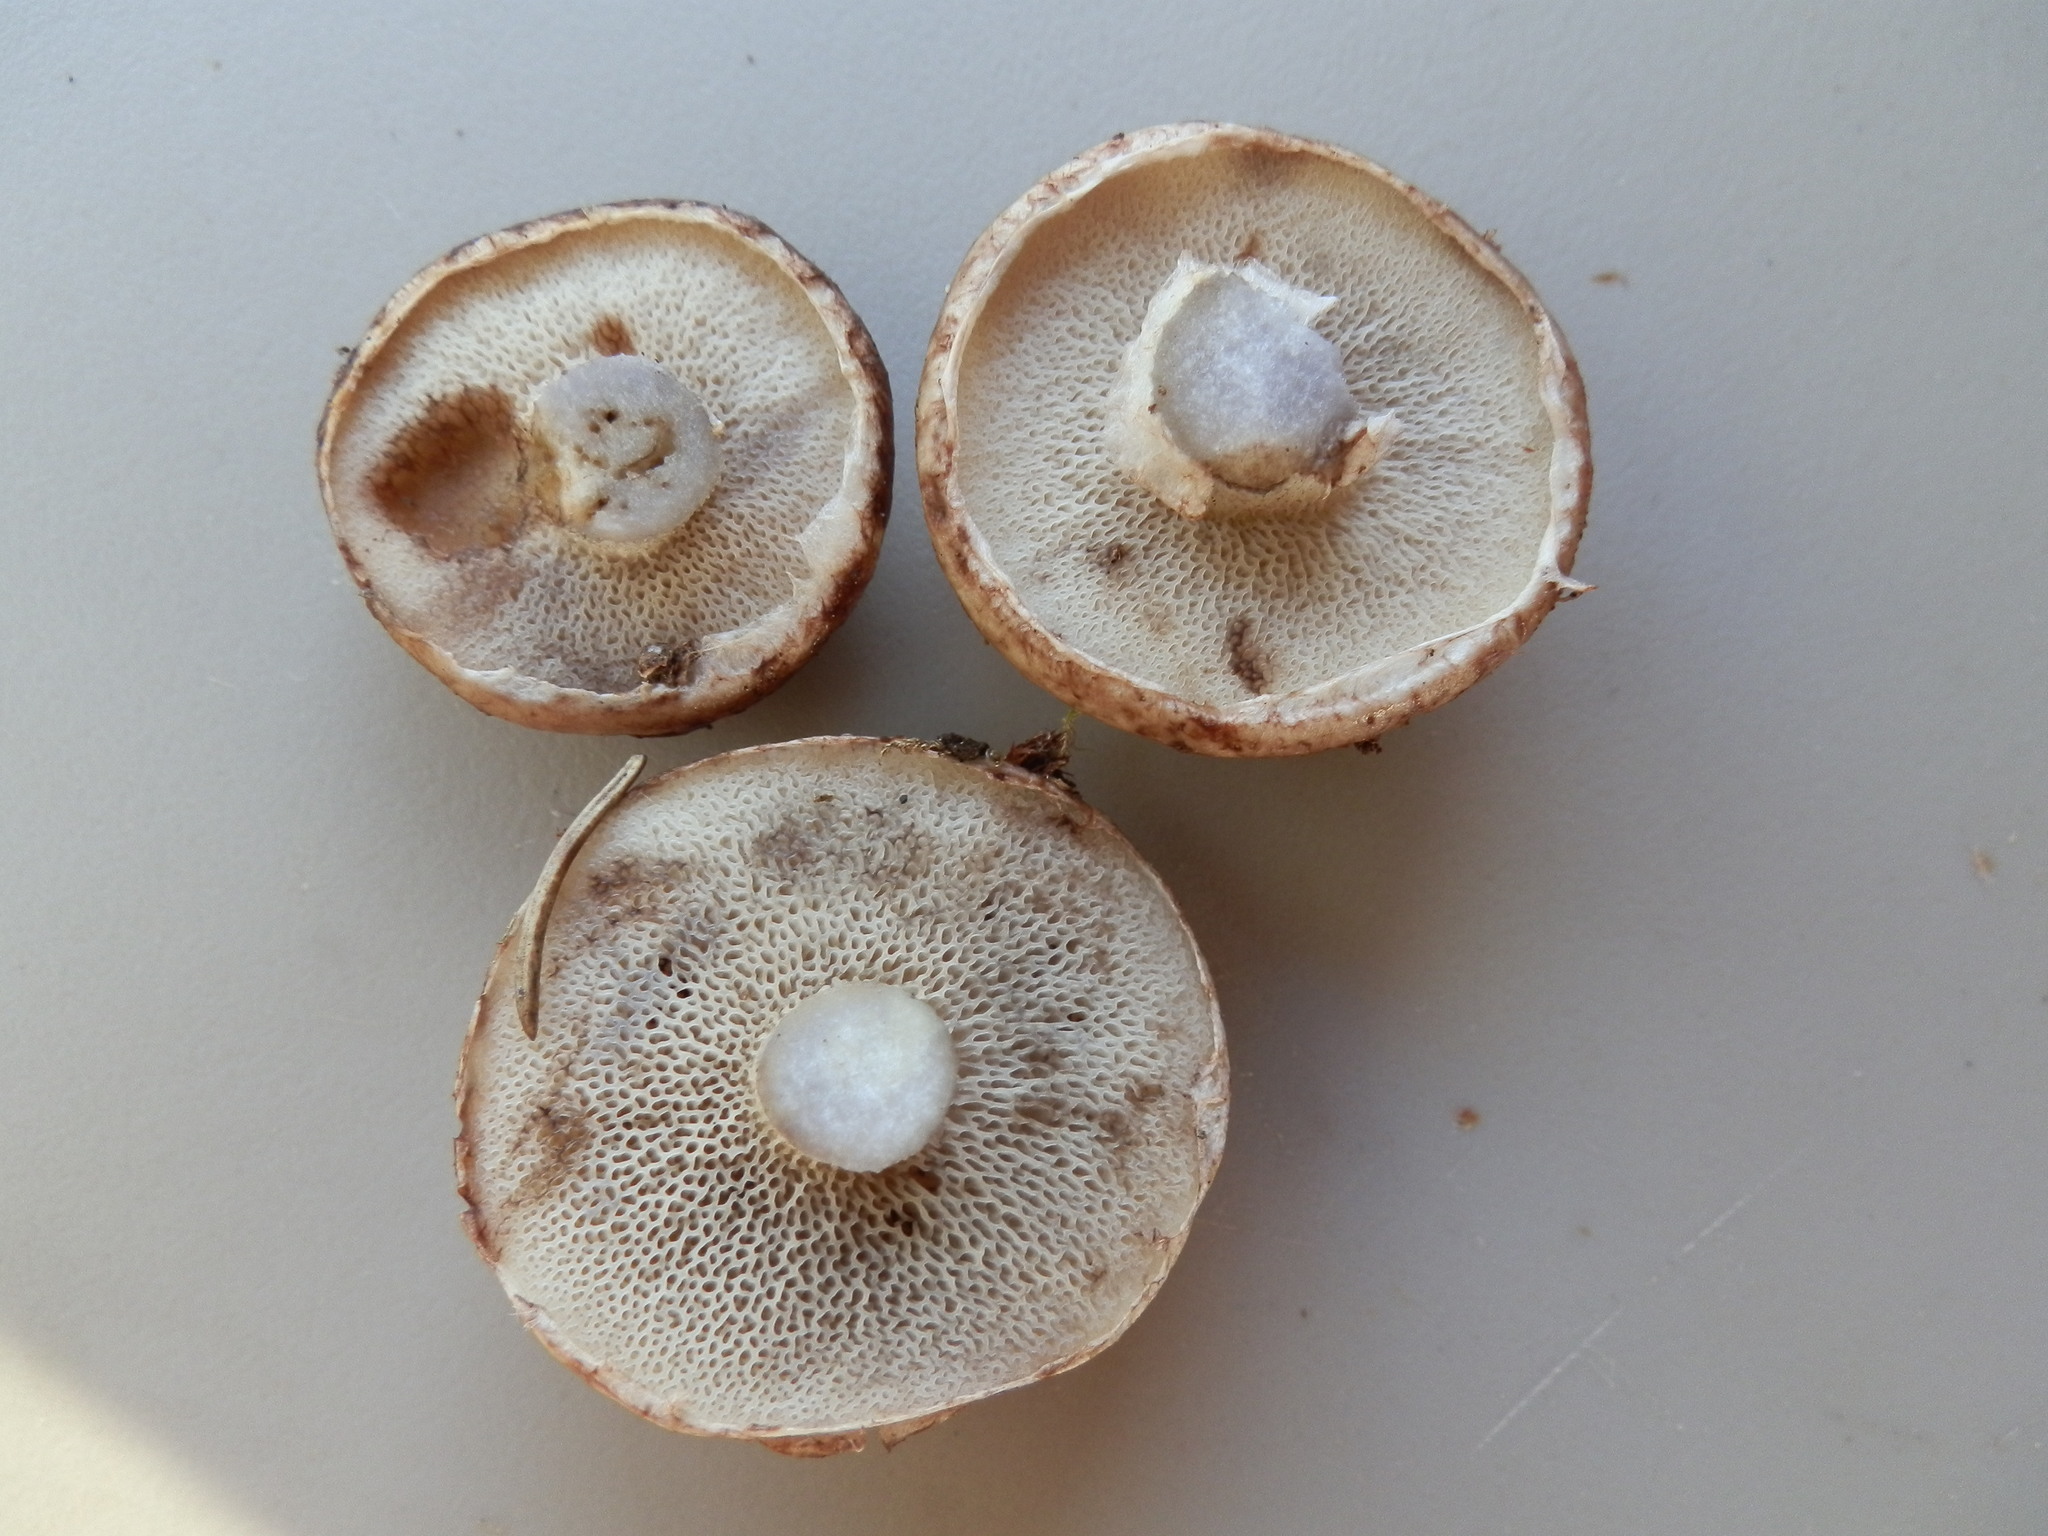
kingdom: Fungi
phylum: Basidiomycota
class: Agaricomycetes
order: Boletales
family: Suillaceae
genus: Suillus
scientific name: Suillus serotinus
